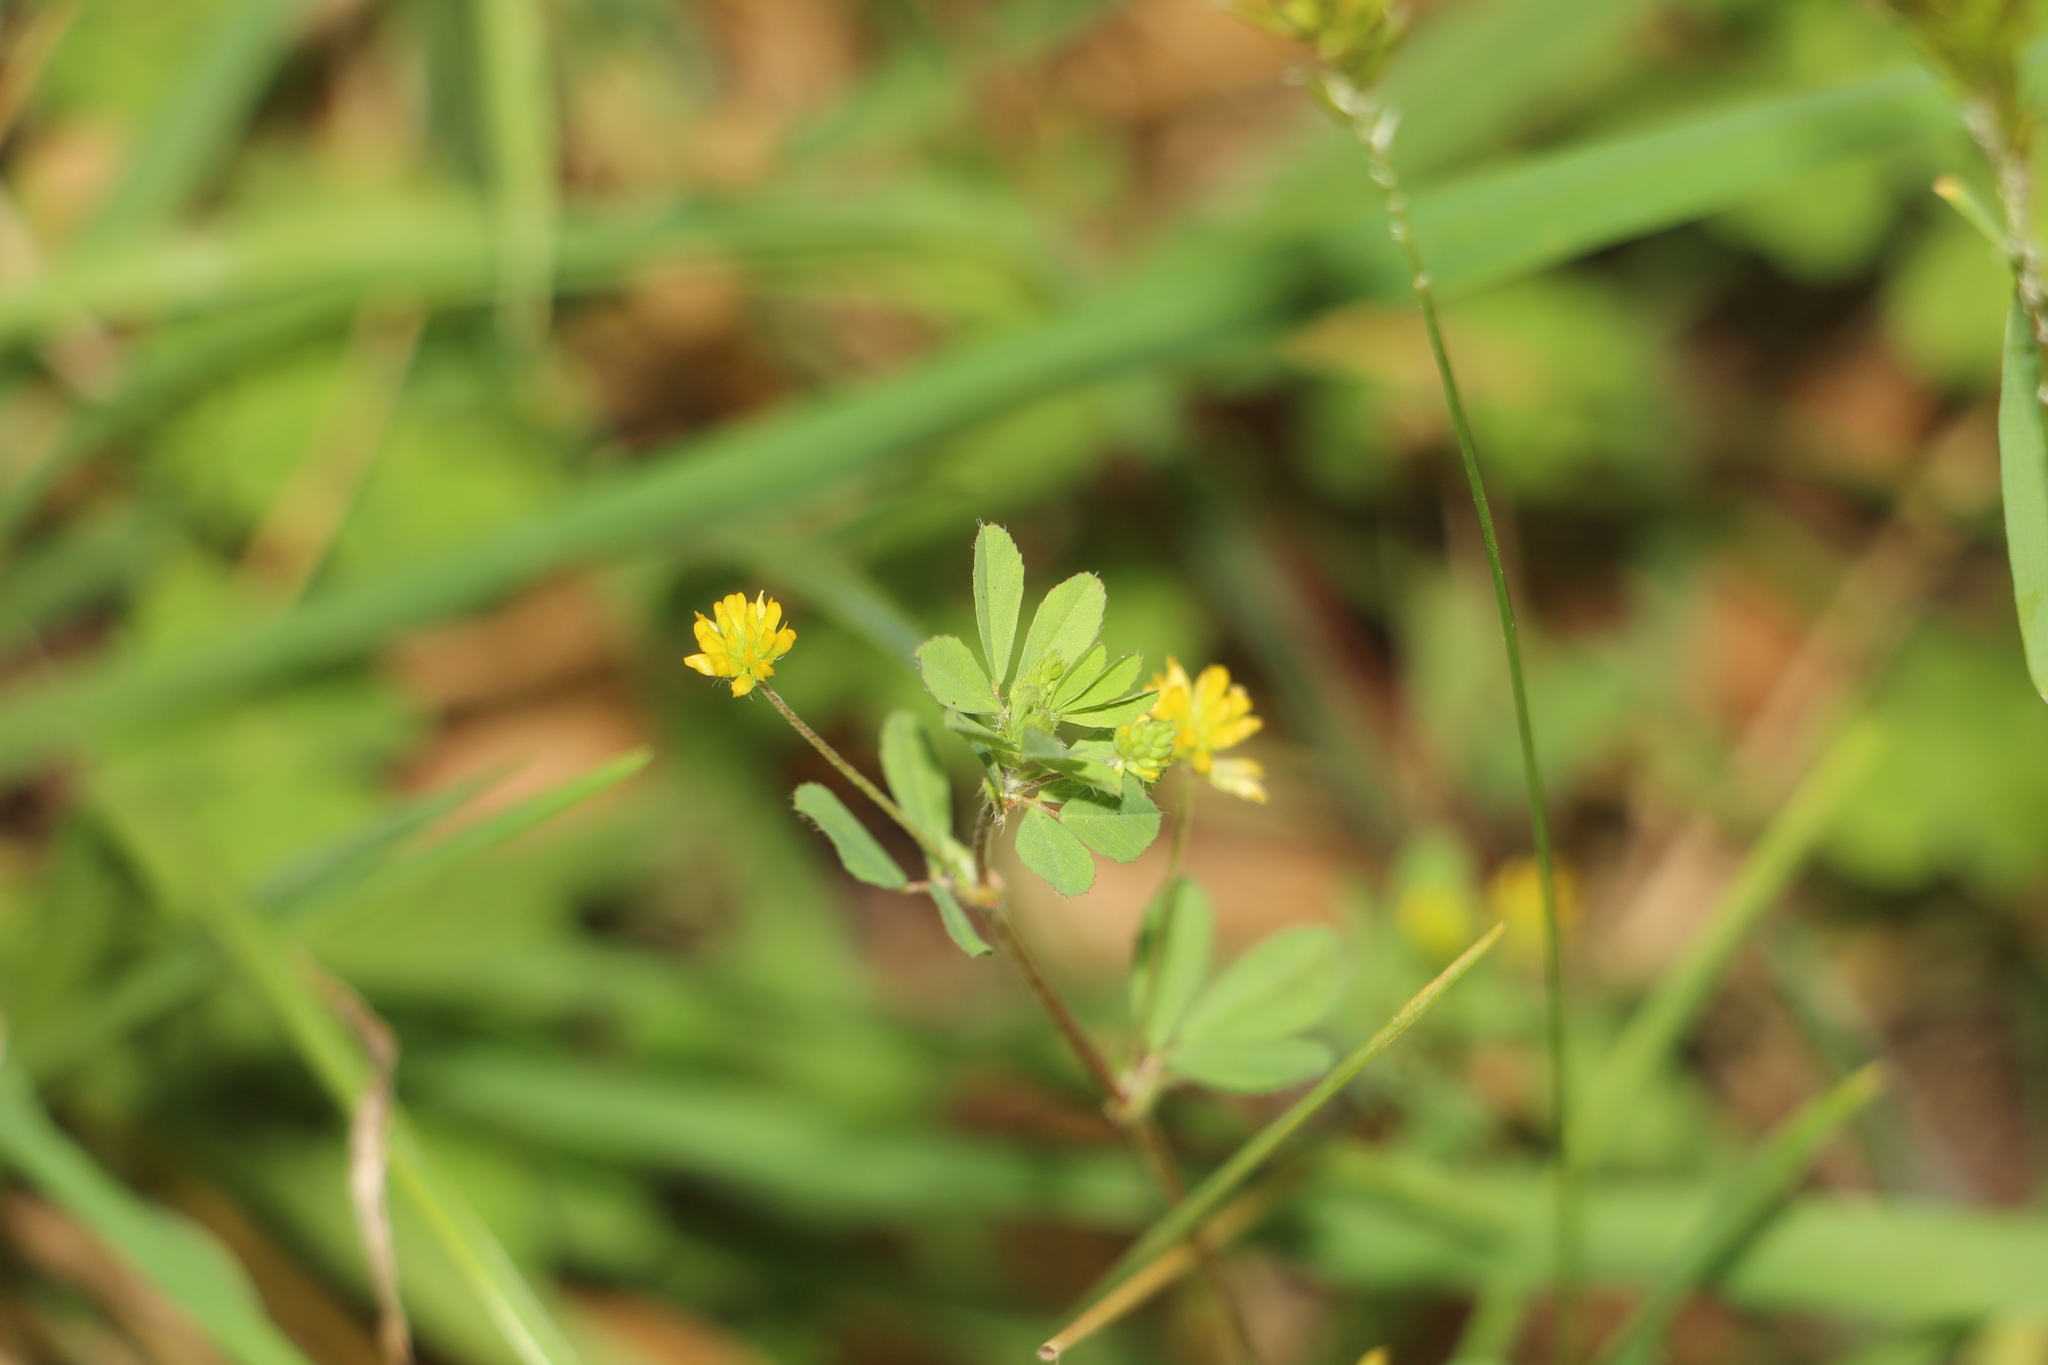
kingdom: Plantae
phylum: Tracheophyta
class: Magnoliopsida
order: Fabales
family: Fabaceae
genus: Trifolium
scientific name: Trifolium dubium
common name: Suckling clover
